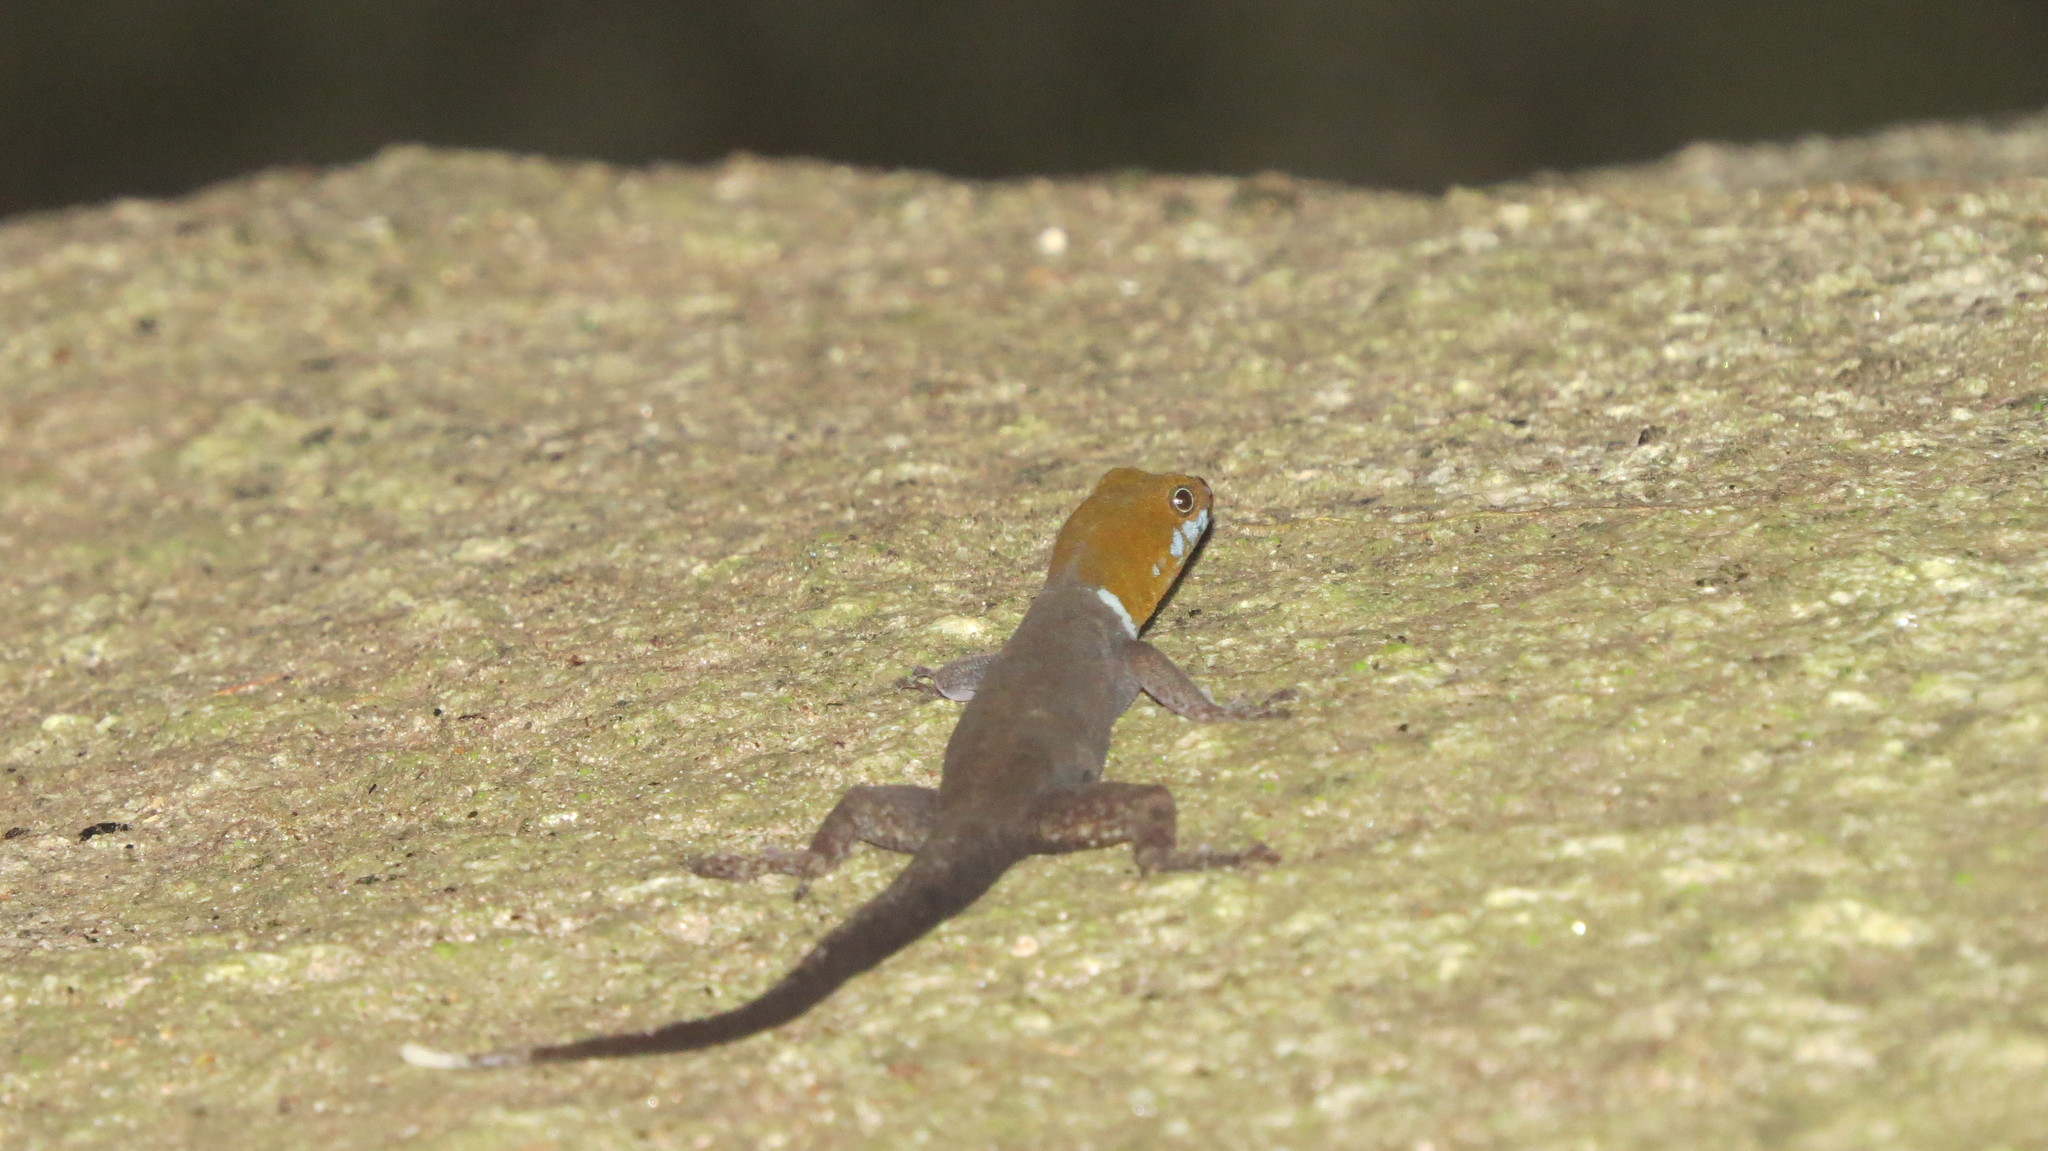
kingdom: Animalia
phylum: Chordata
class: Squamata
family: Sphaerodactylidae
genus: Gonatodes
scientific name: Gonatodes albogularis
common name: Yellow-headed gecko
